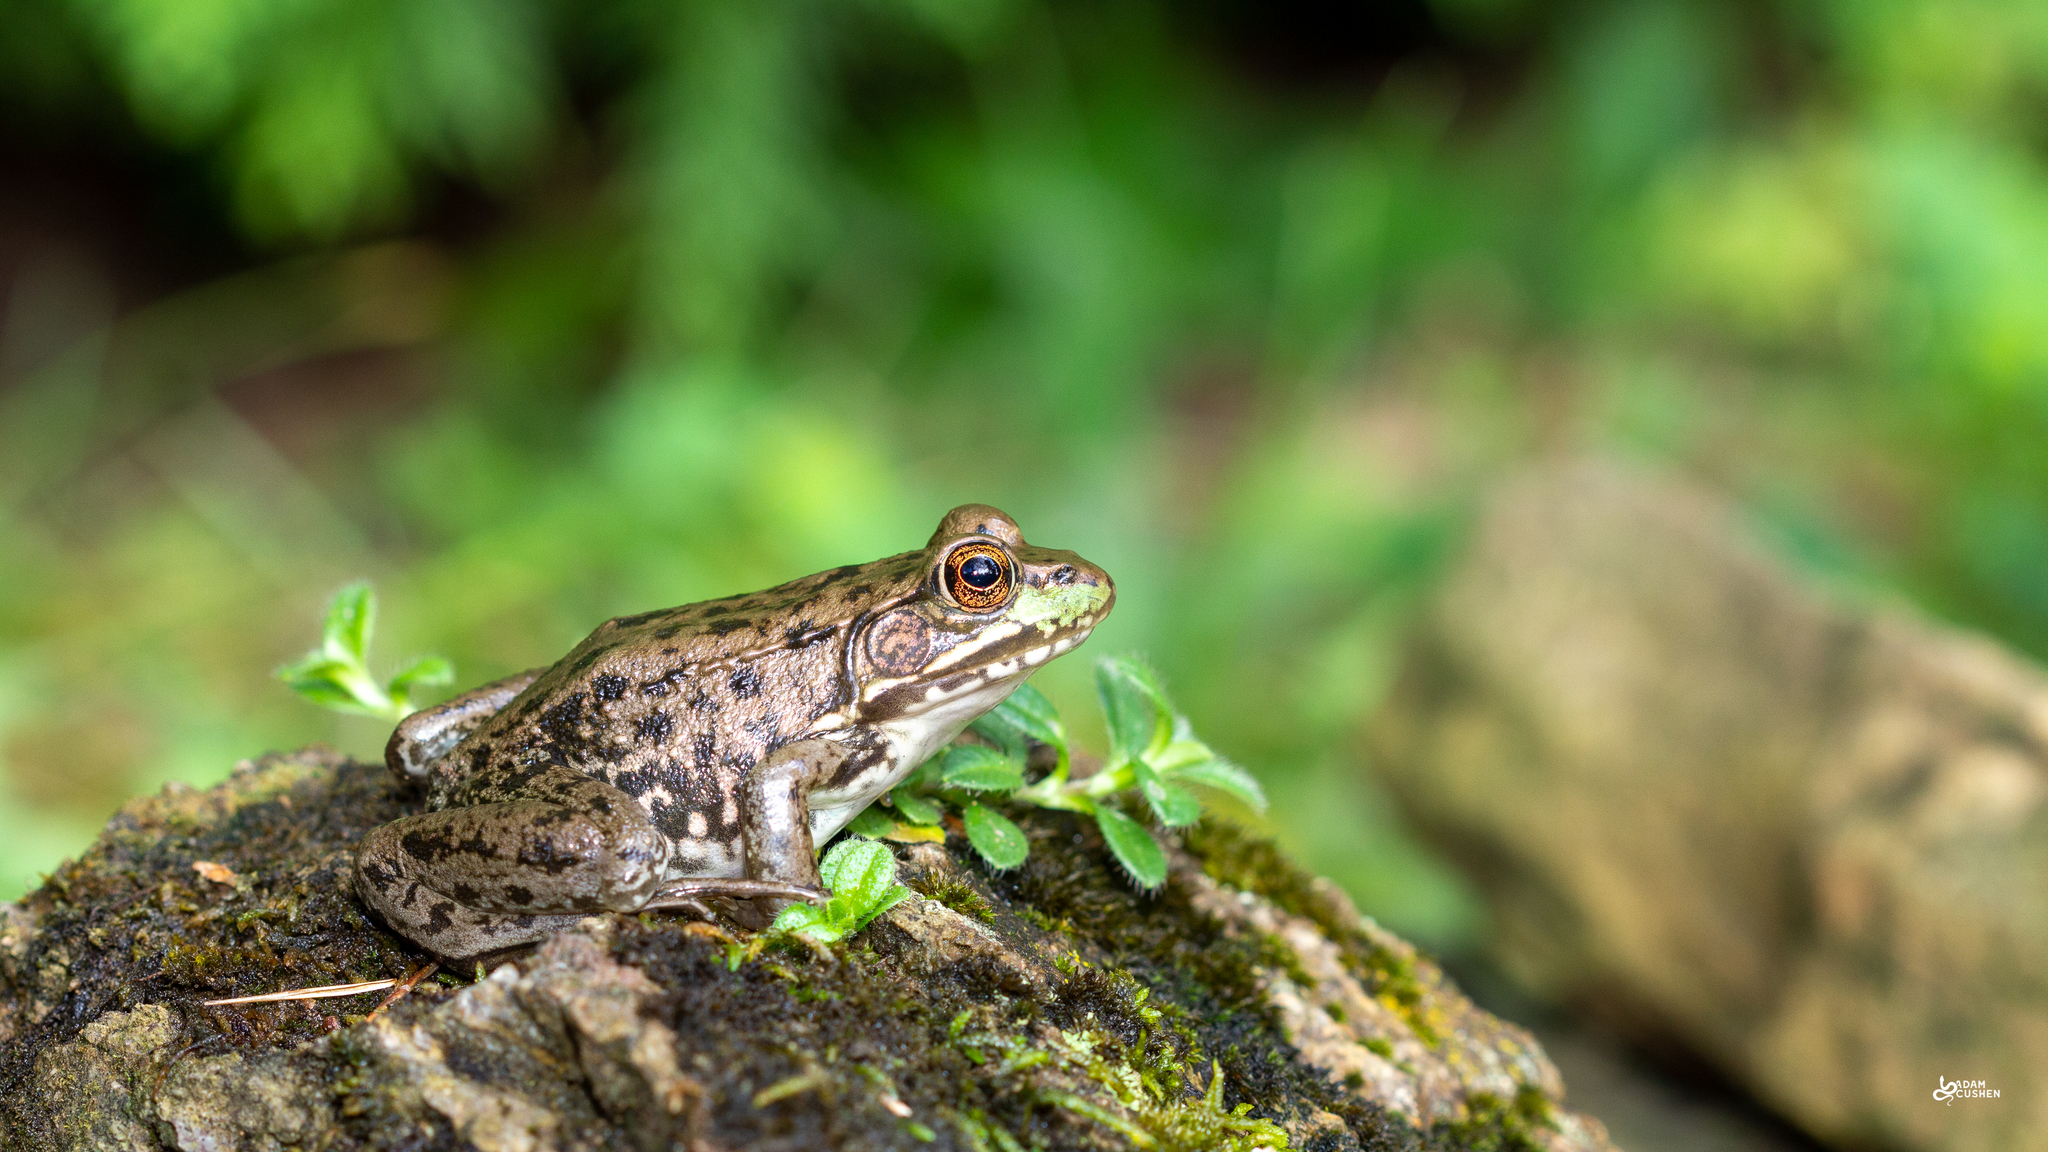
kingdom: Animalia
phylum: Chordata
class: Amphibia
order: Anura
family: Ranidae
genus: Lithobates
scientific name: Lithobates clamitans
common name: Green frog
